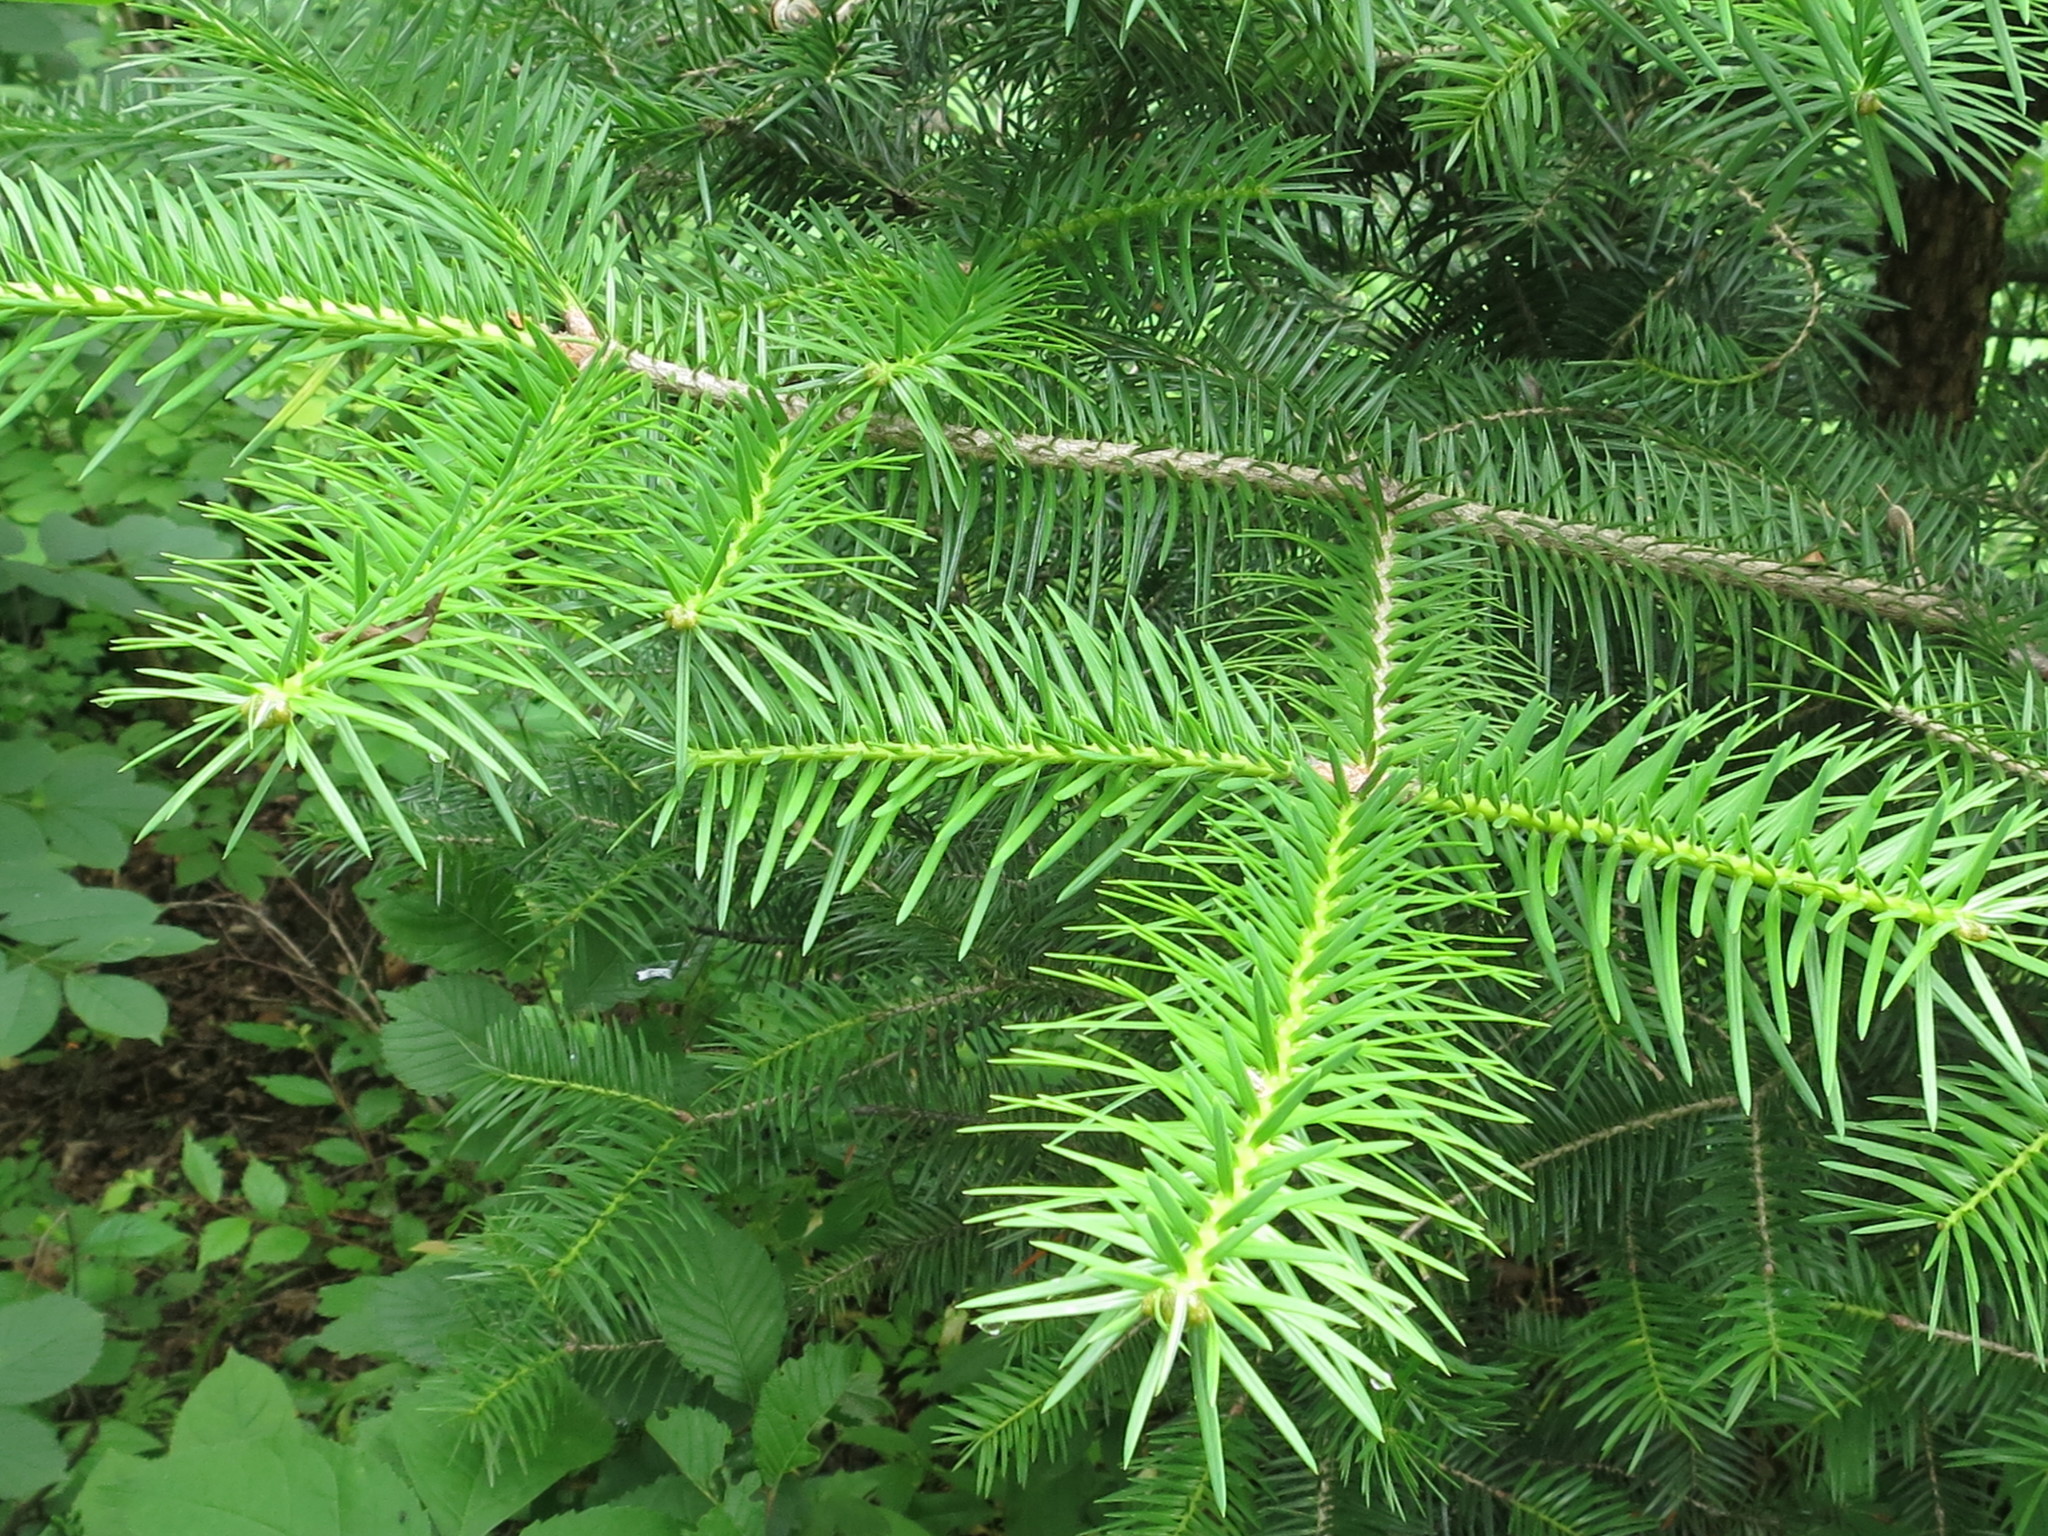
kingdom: Plantae
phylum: Tracheophyta
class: Pinopsida
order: Pinales
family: Pinaceae
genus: Abies
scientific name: Abies holophylla
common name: Manchurian fir
